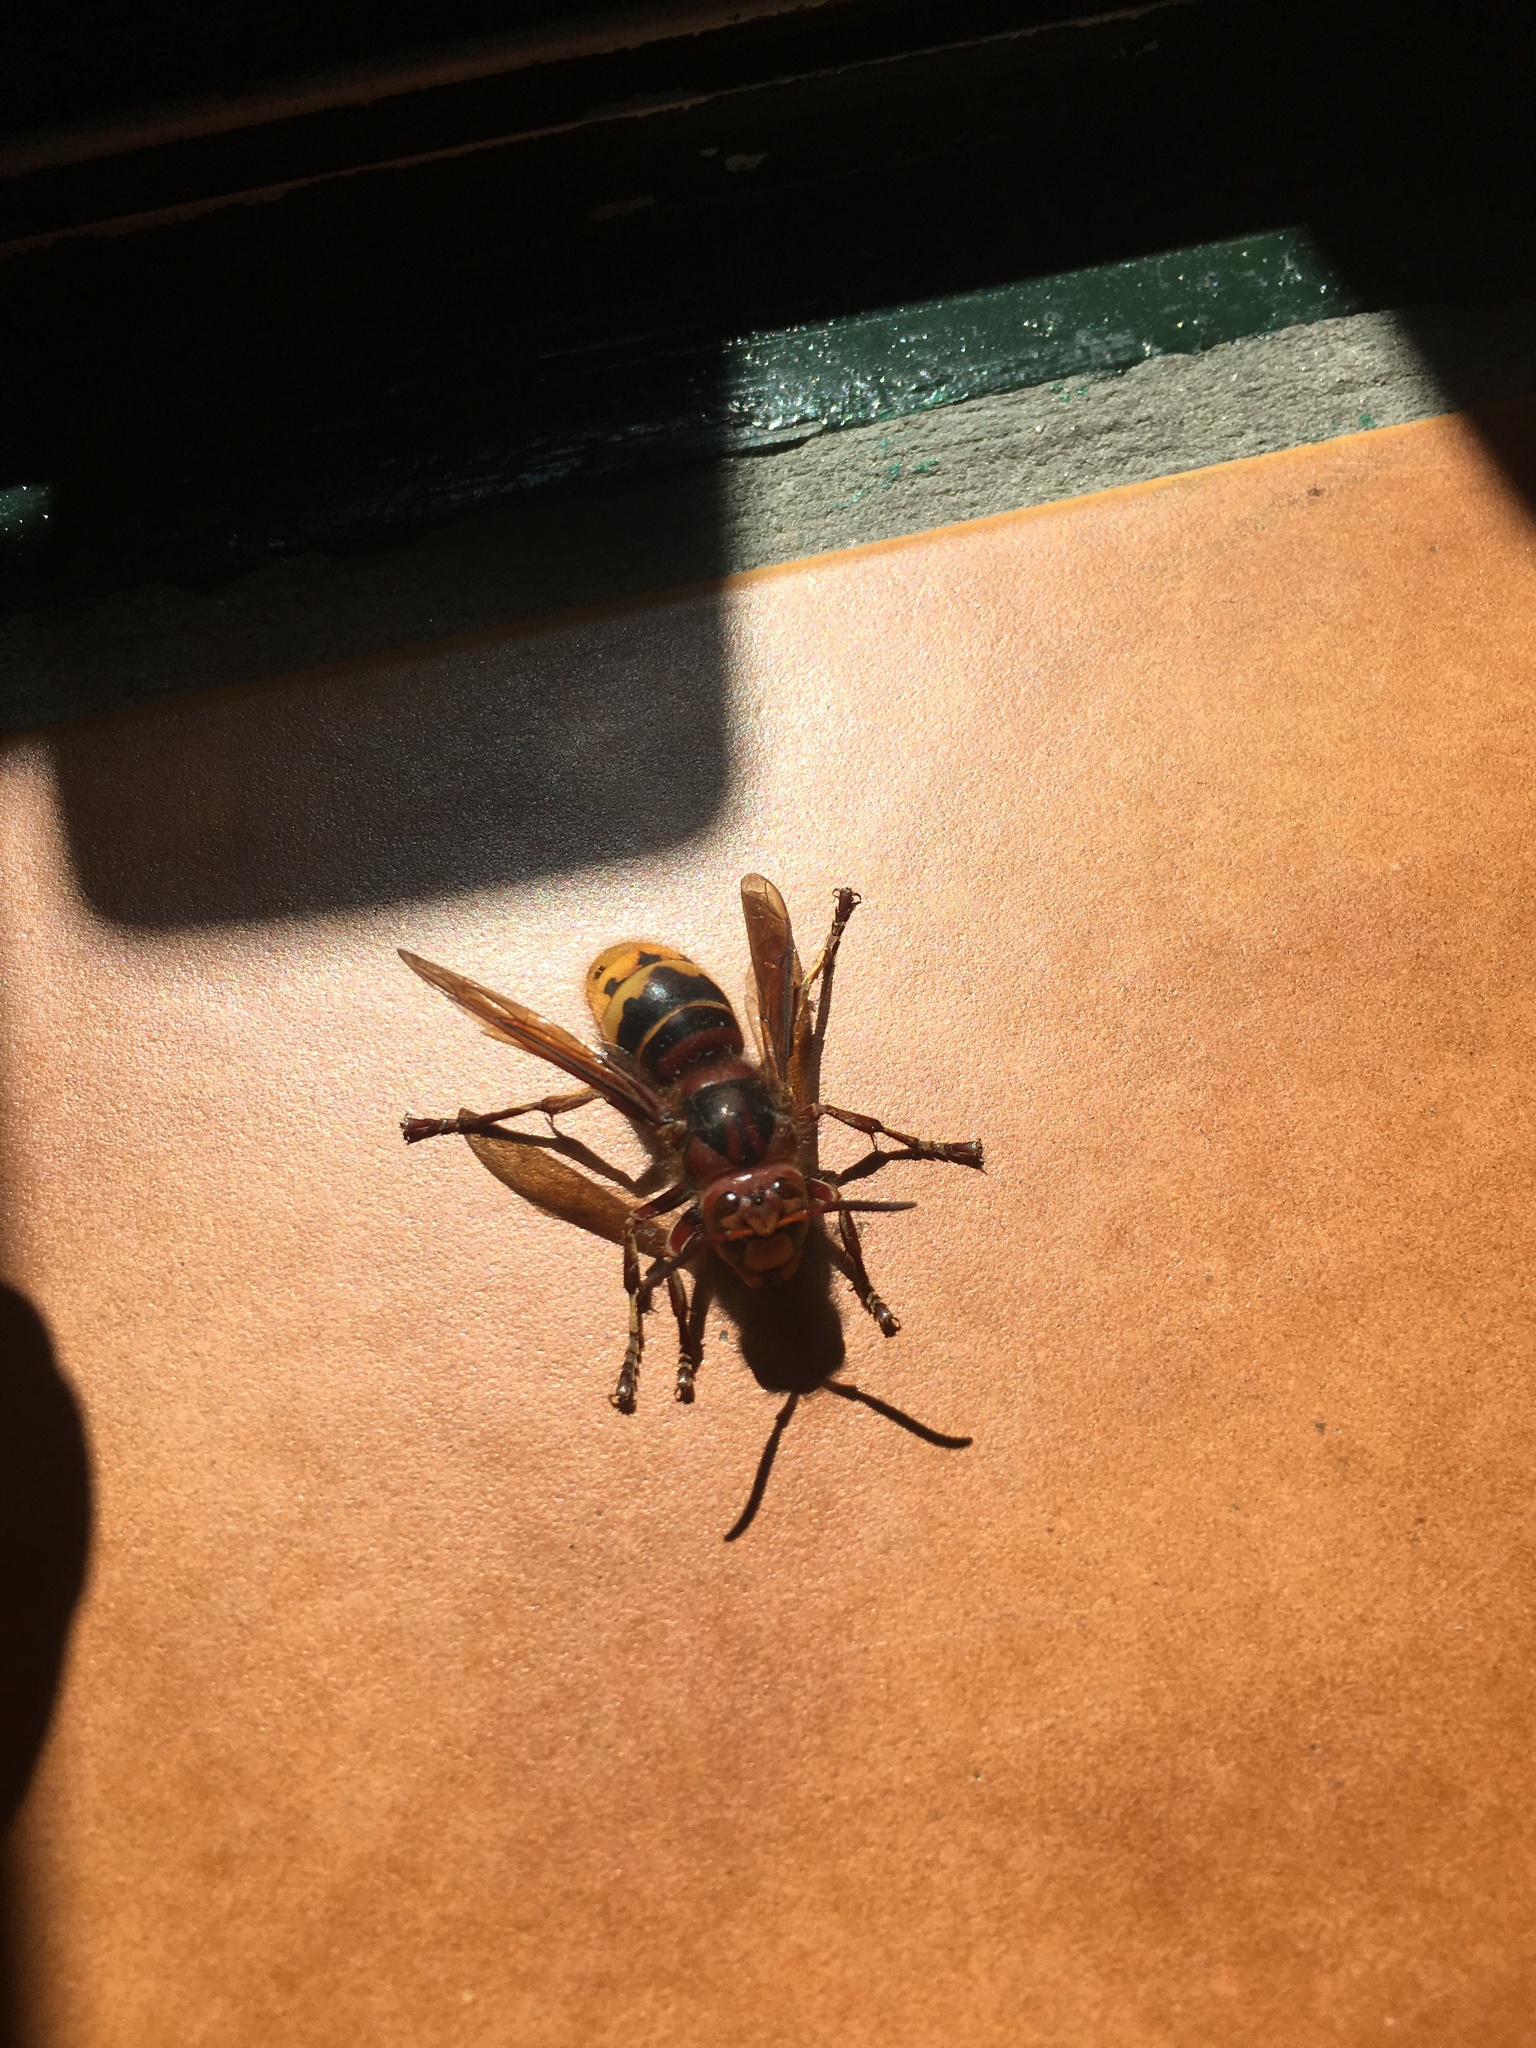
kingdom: Animalia
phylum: Arthropoda
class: Insecta
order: Hymenoptera
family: Vespidae
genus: Vespa
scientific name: Vespa crabro
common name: Hornet
